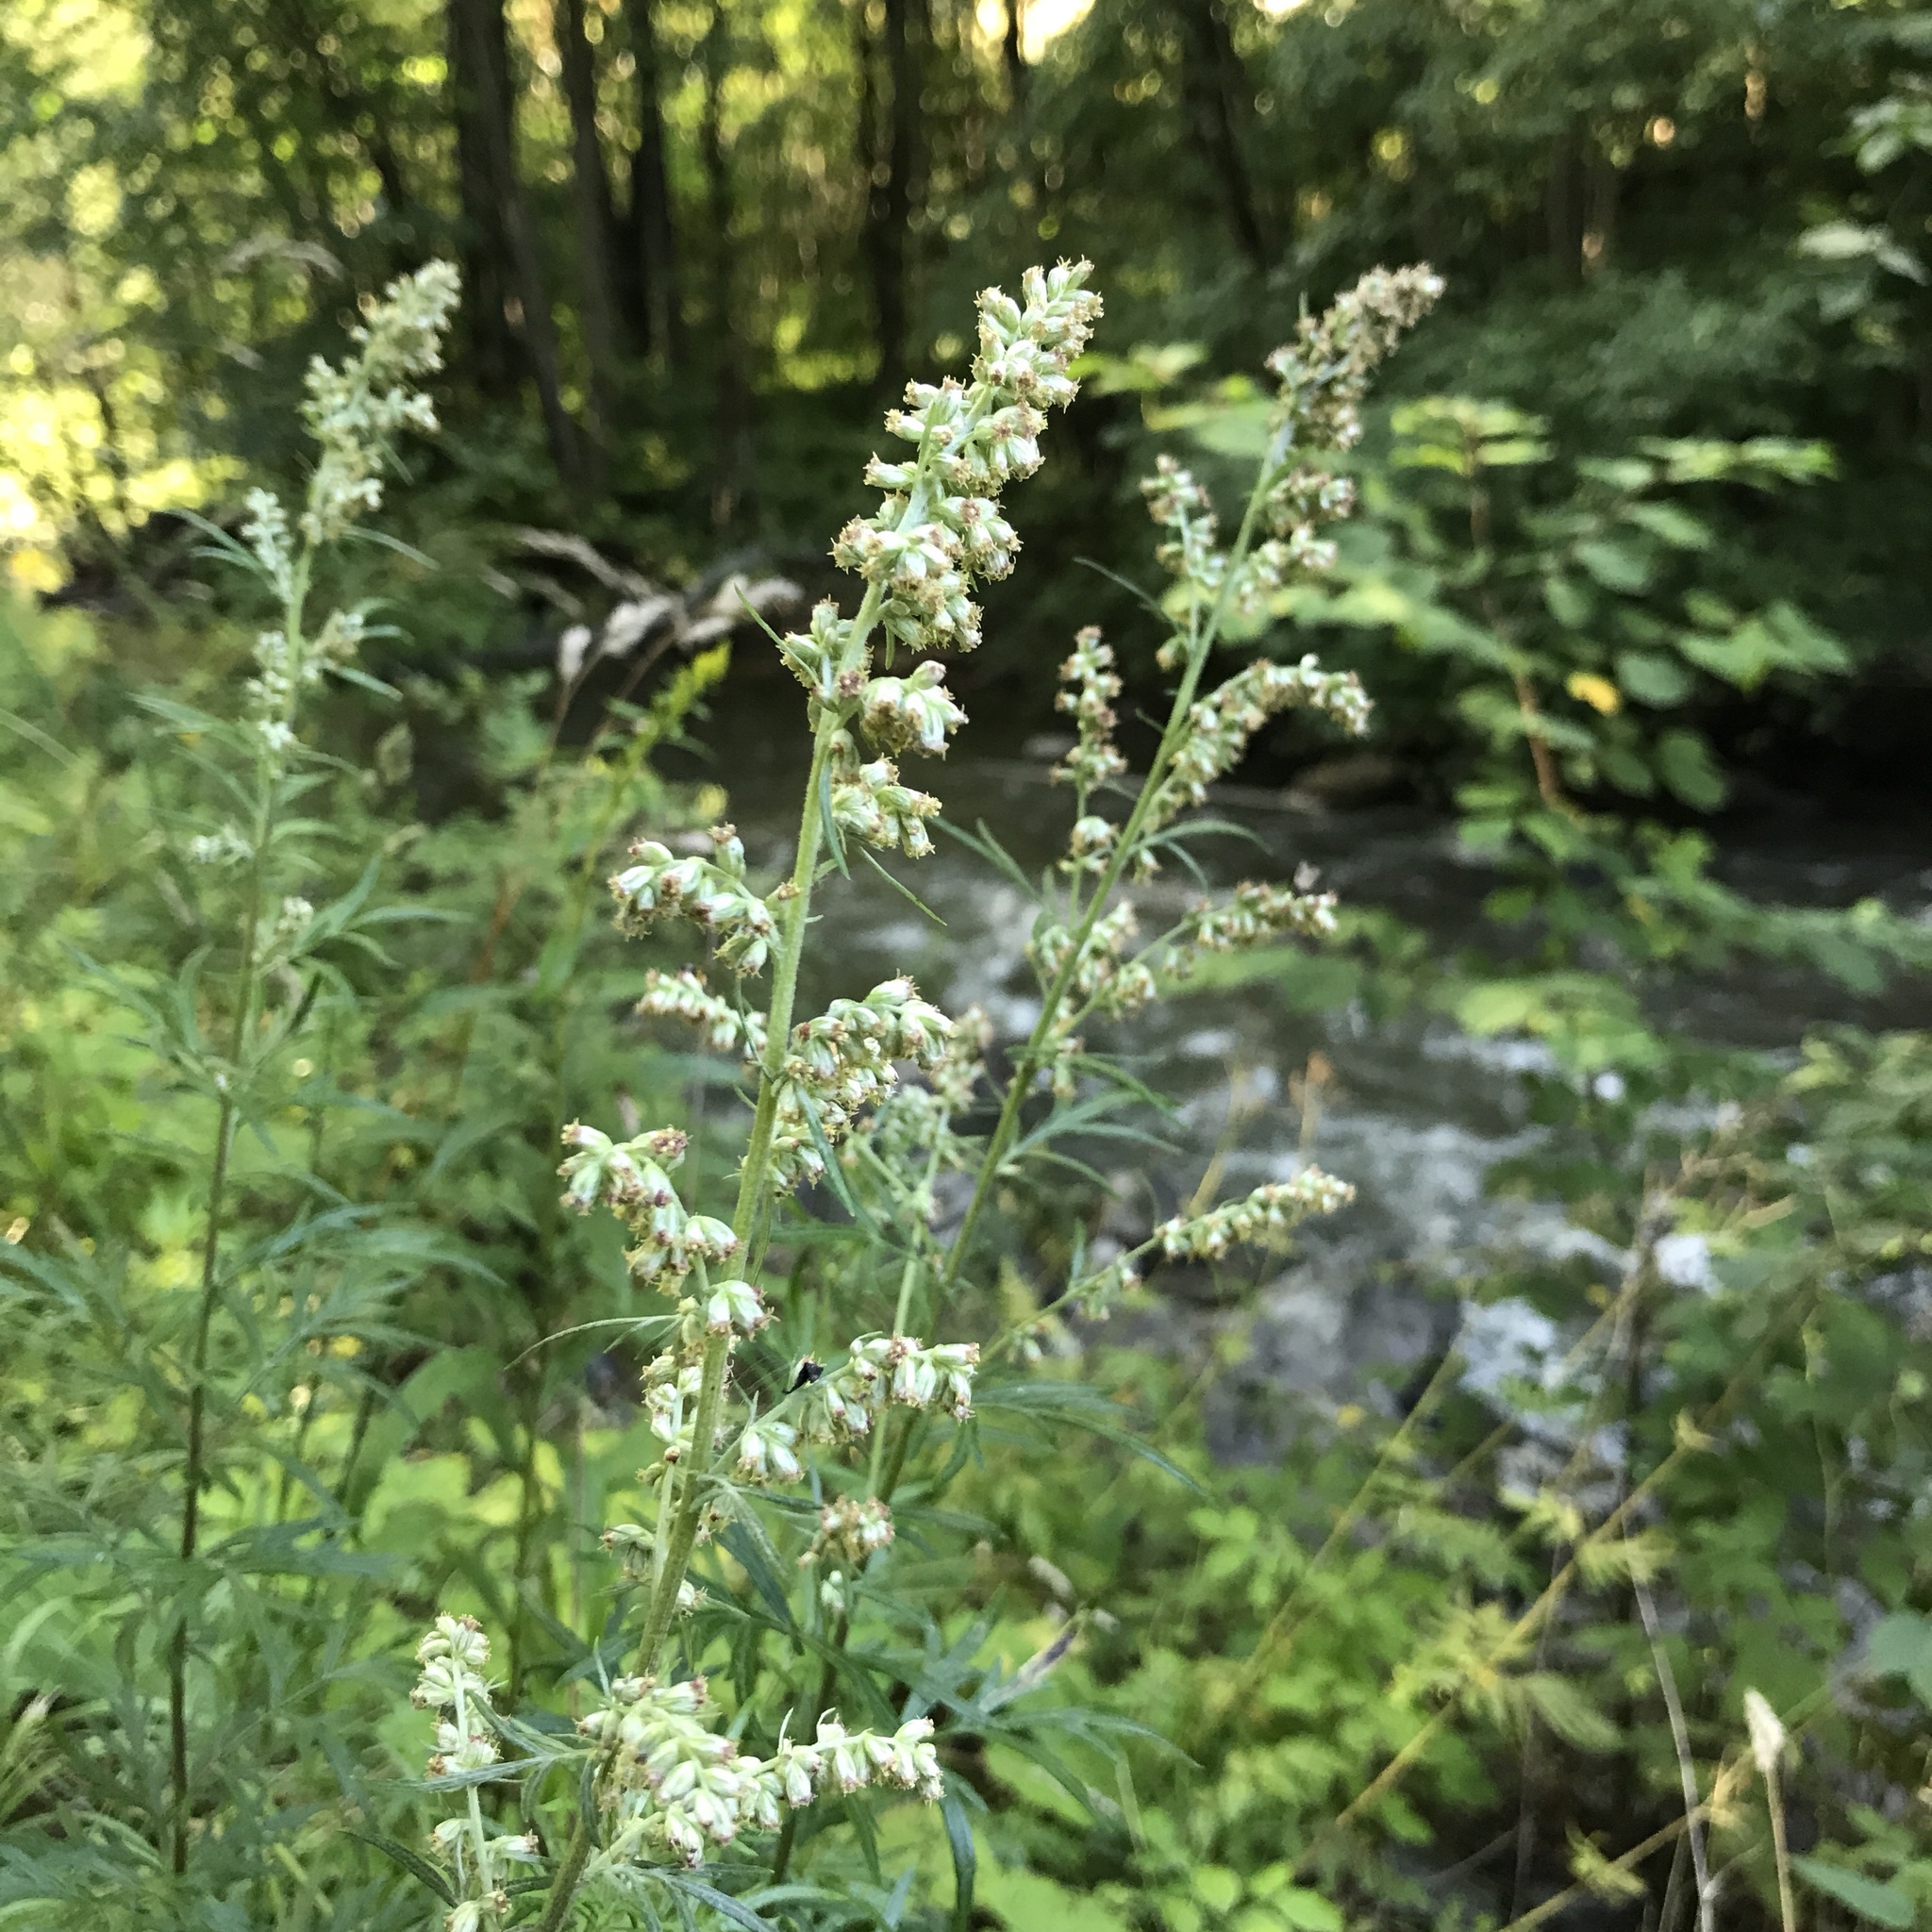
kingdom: Plantae
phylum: Tracheophyta
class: Magnoliopsida
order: Asterales
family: Asteraceae
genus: Artemisia
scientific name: Artemisia vulgaris
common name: Mugwort
